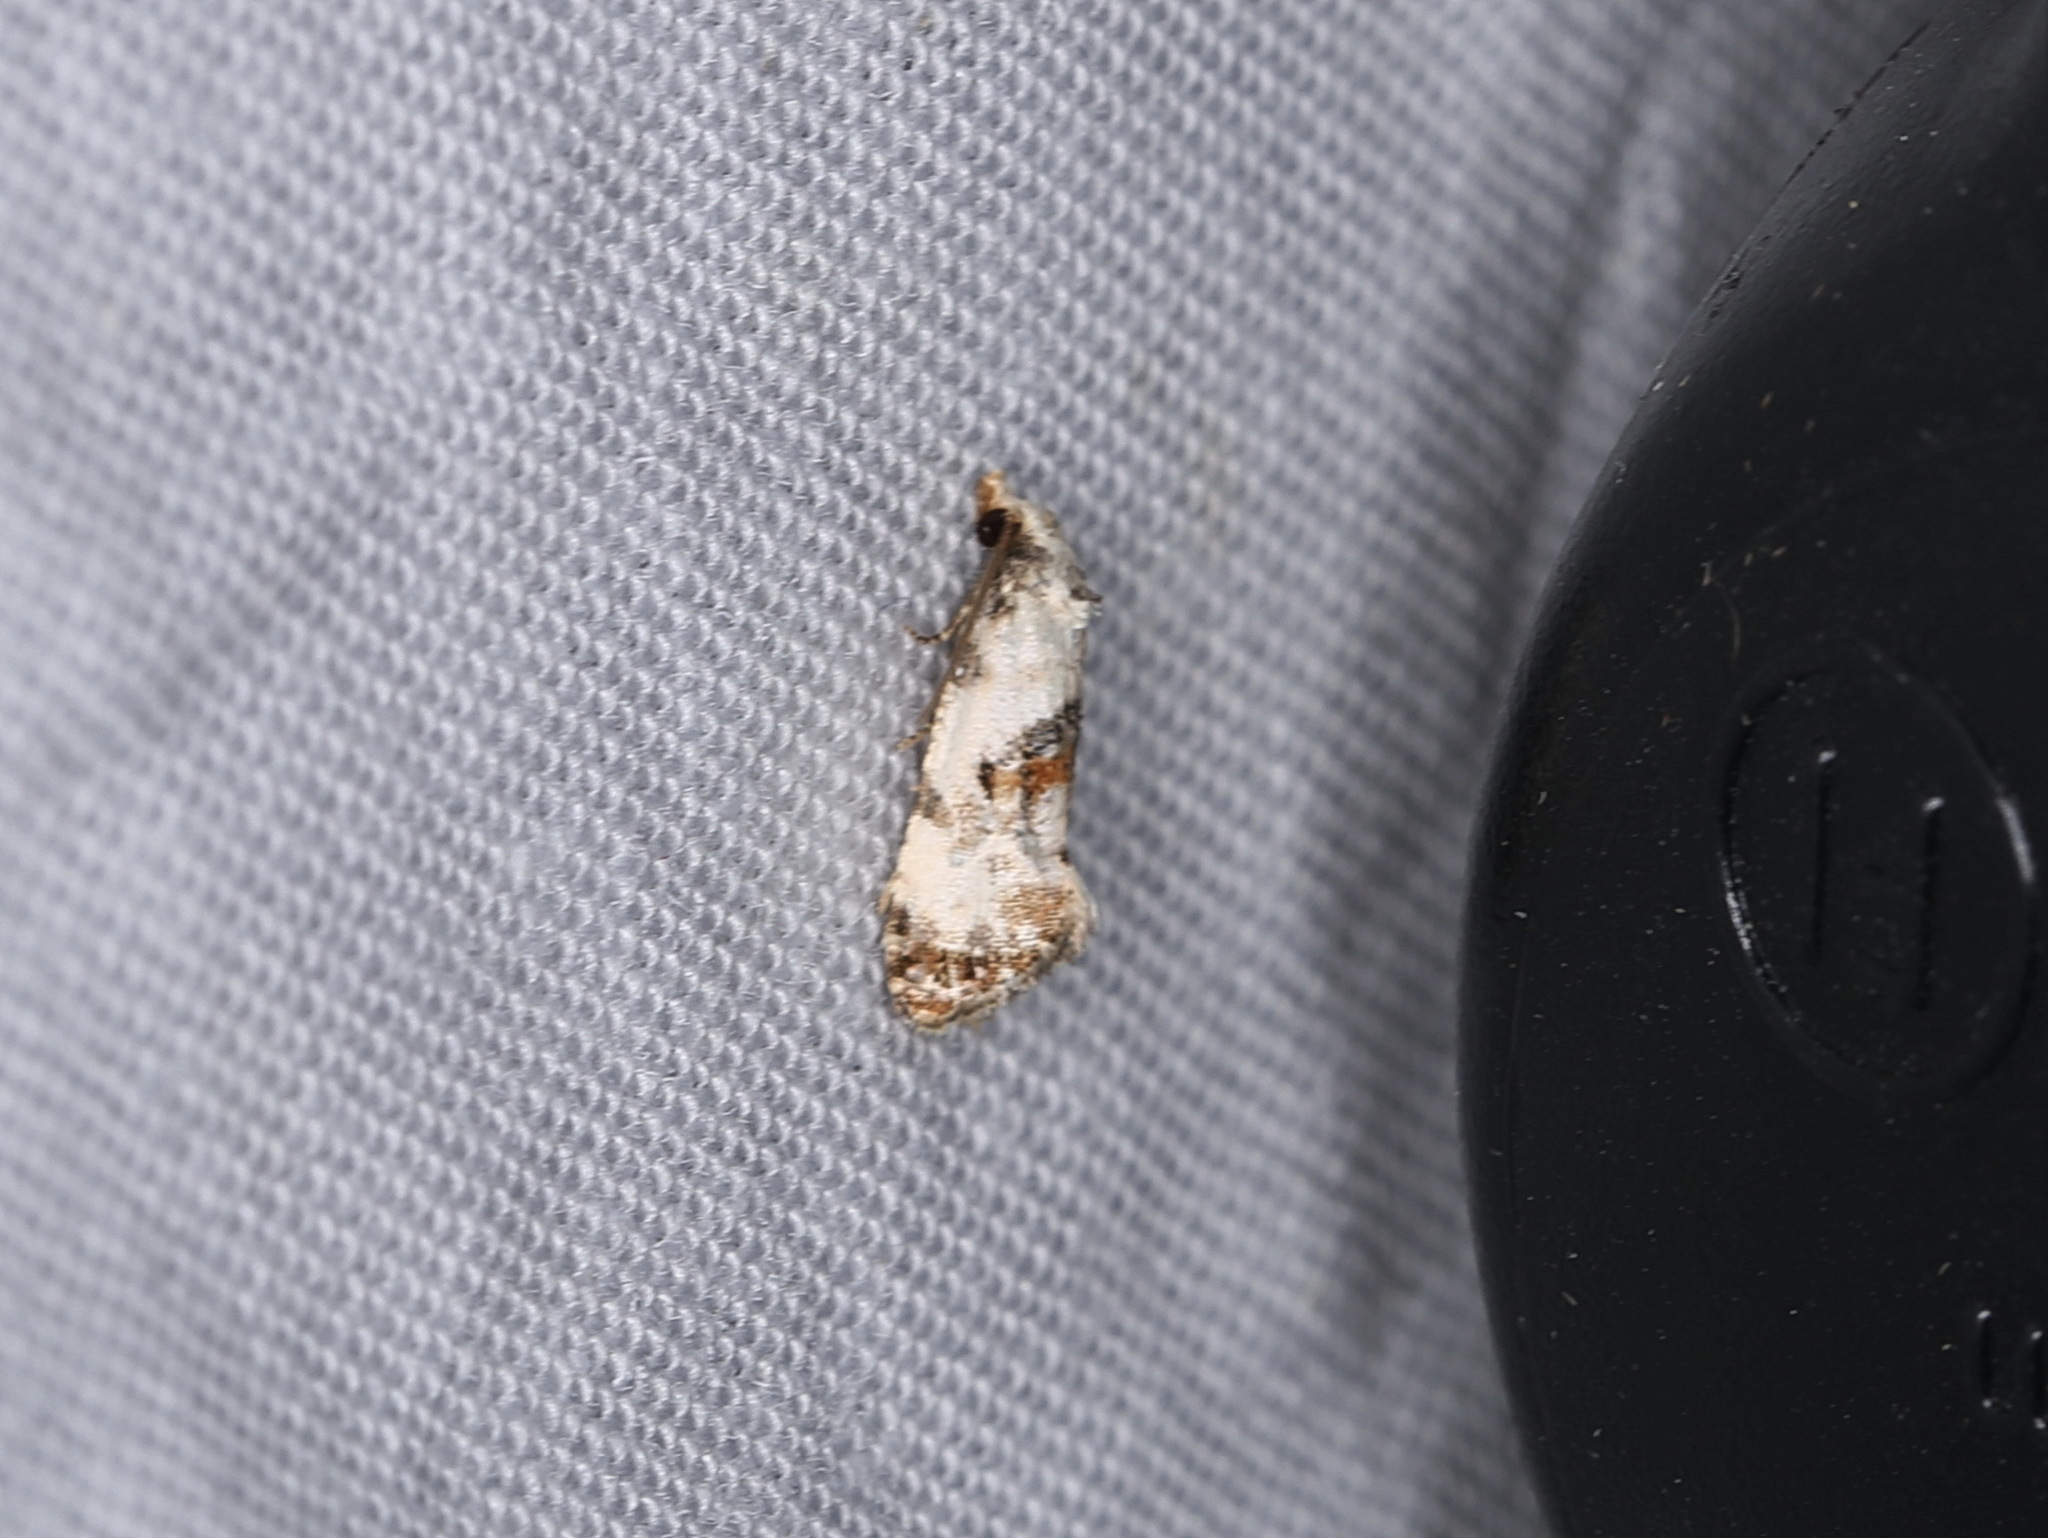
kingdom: Animalia
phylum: Arthropoda
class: Insecta
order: Lepidoptera
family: Tortricidae
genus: Cochylis
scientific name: Cochylis hybridella
